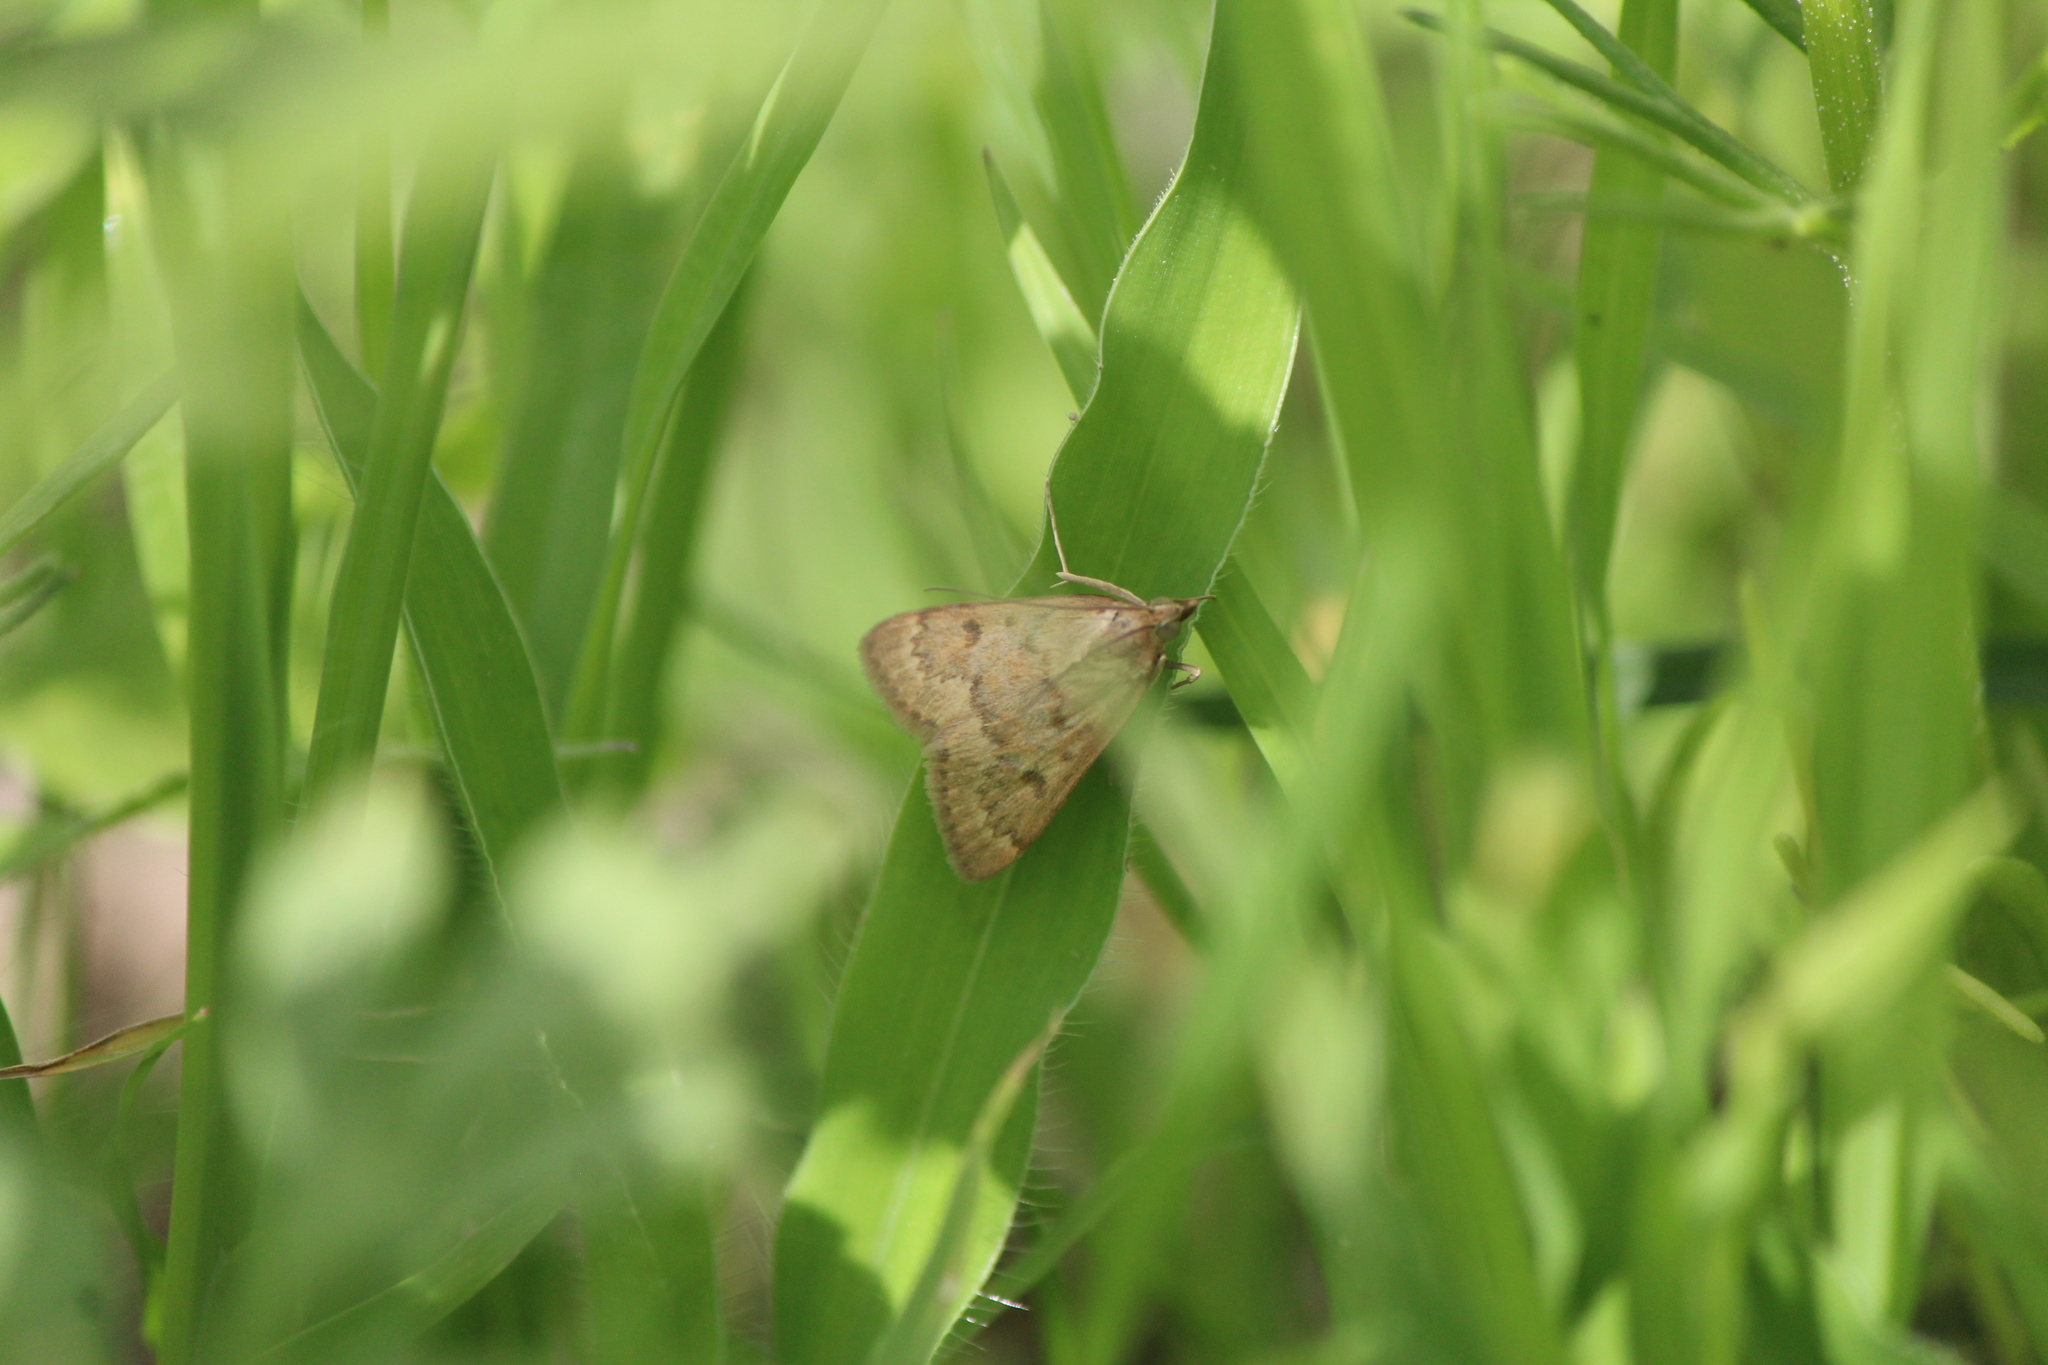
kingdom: Animalia
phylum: Arthropoda
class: Insecta
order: Lepidoptera
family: Crambidae
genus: Achyra
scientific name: Achyra rantalis
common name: Garden webworm
